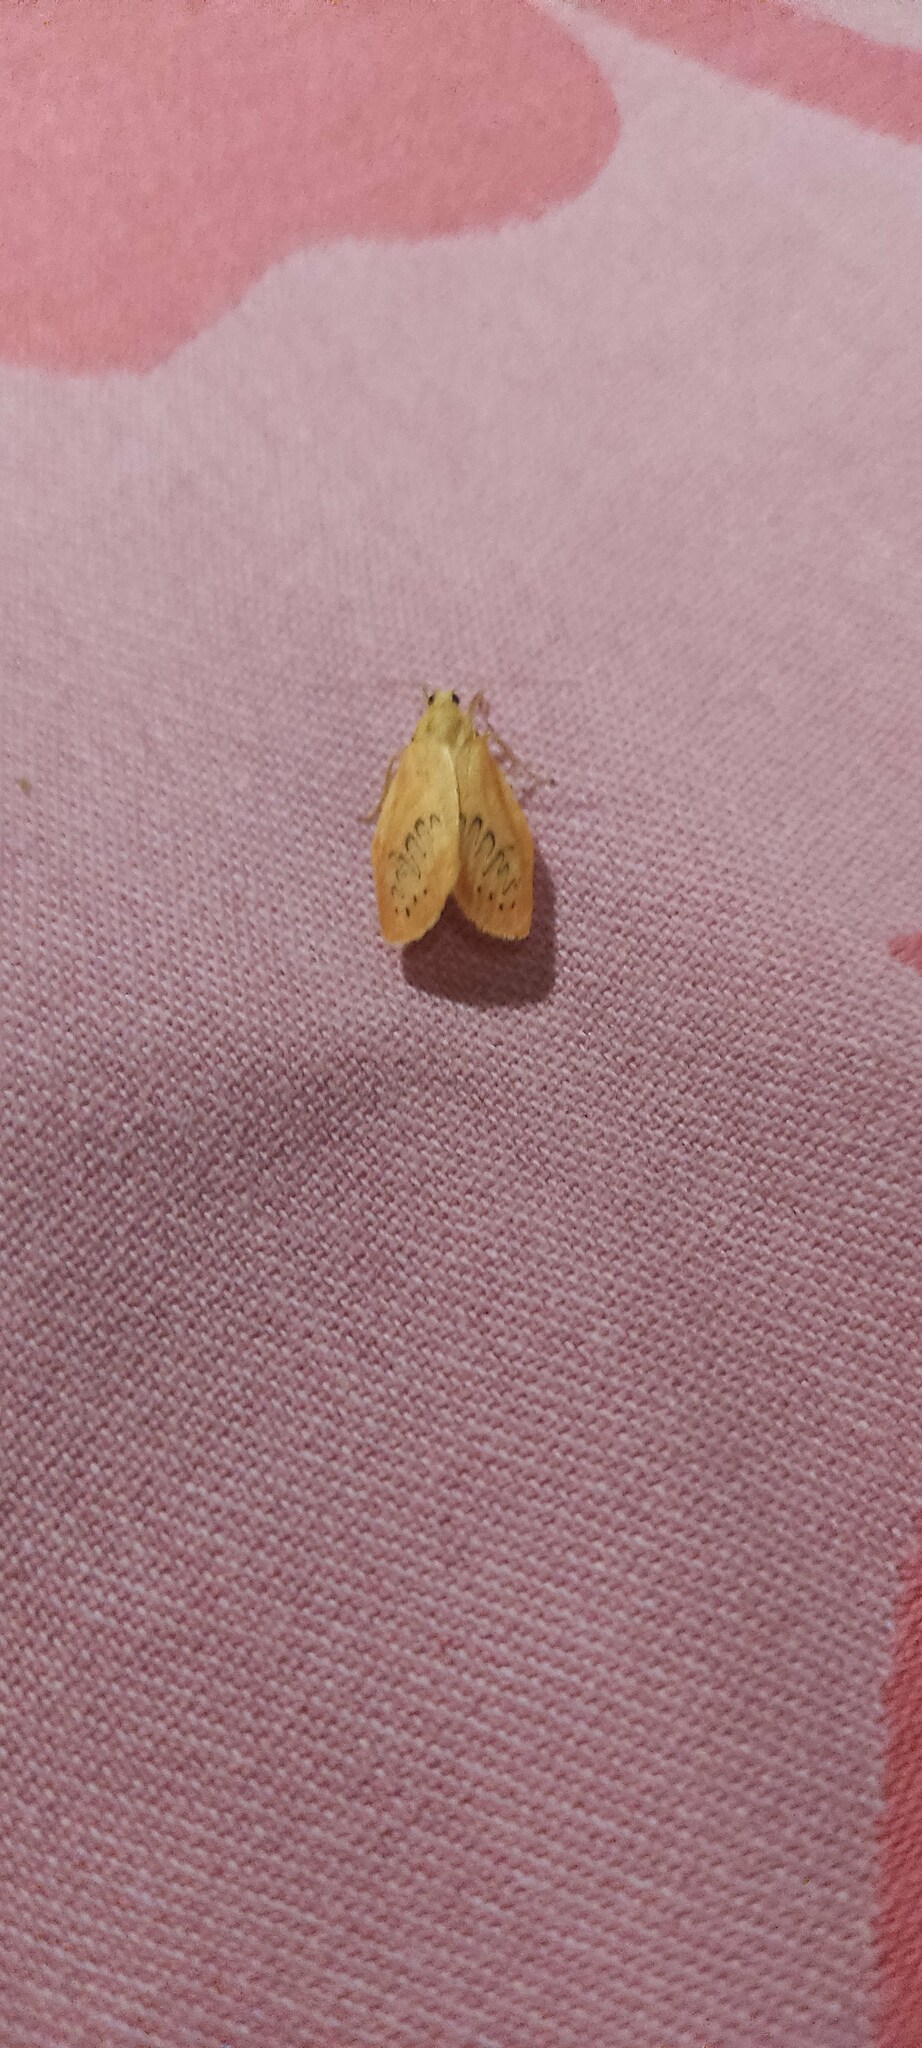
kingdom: Animalia
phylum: Arthropoda
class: Insecta
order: Lepidoptera
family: Erebidae
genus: Miltochrista
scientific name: Miltochrista miniata
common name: Rosy footman
